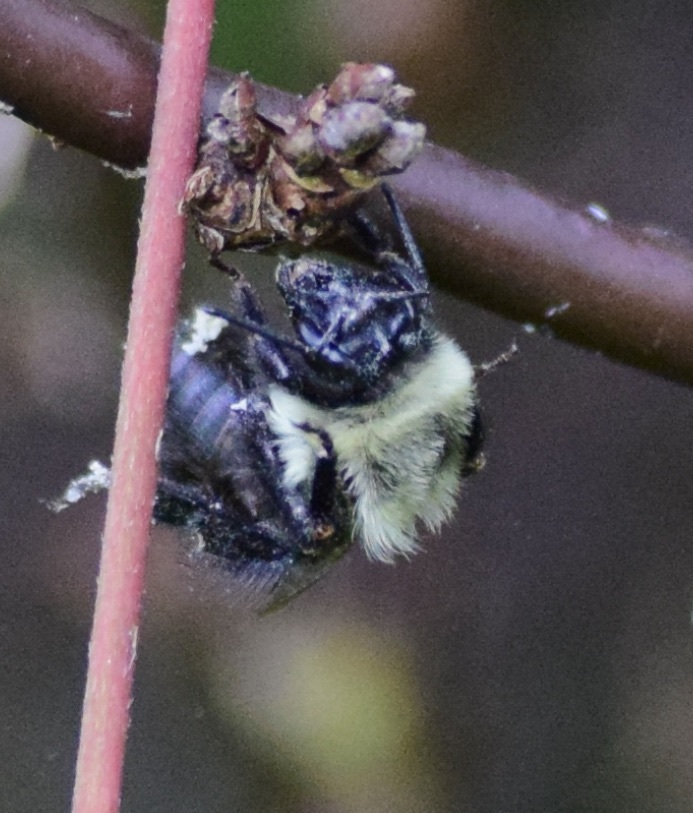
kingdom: Animalia
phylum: Arthropoda
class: Insecta
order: Hymenoptera
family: Apidae
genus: Bombus
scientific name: Bombus impatiens
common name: Common eastern bumble bee
